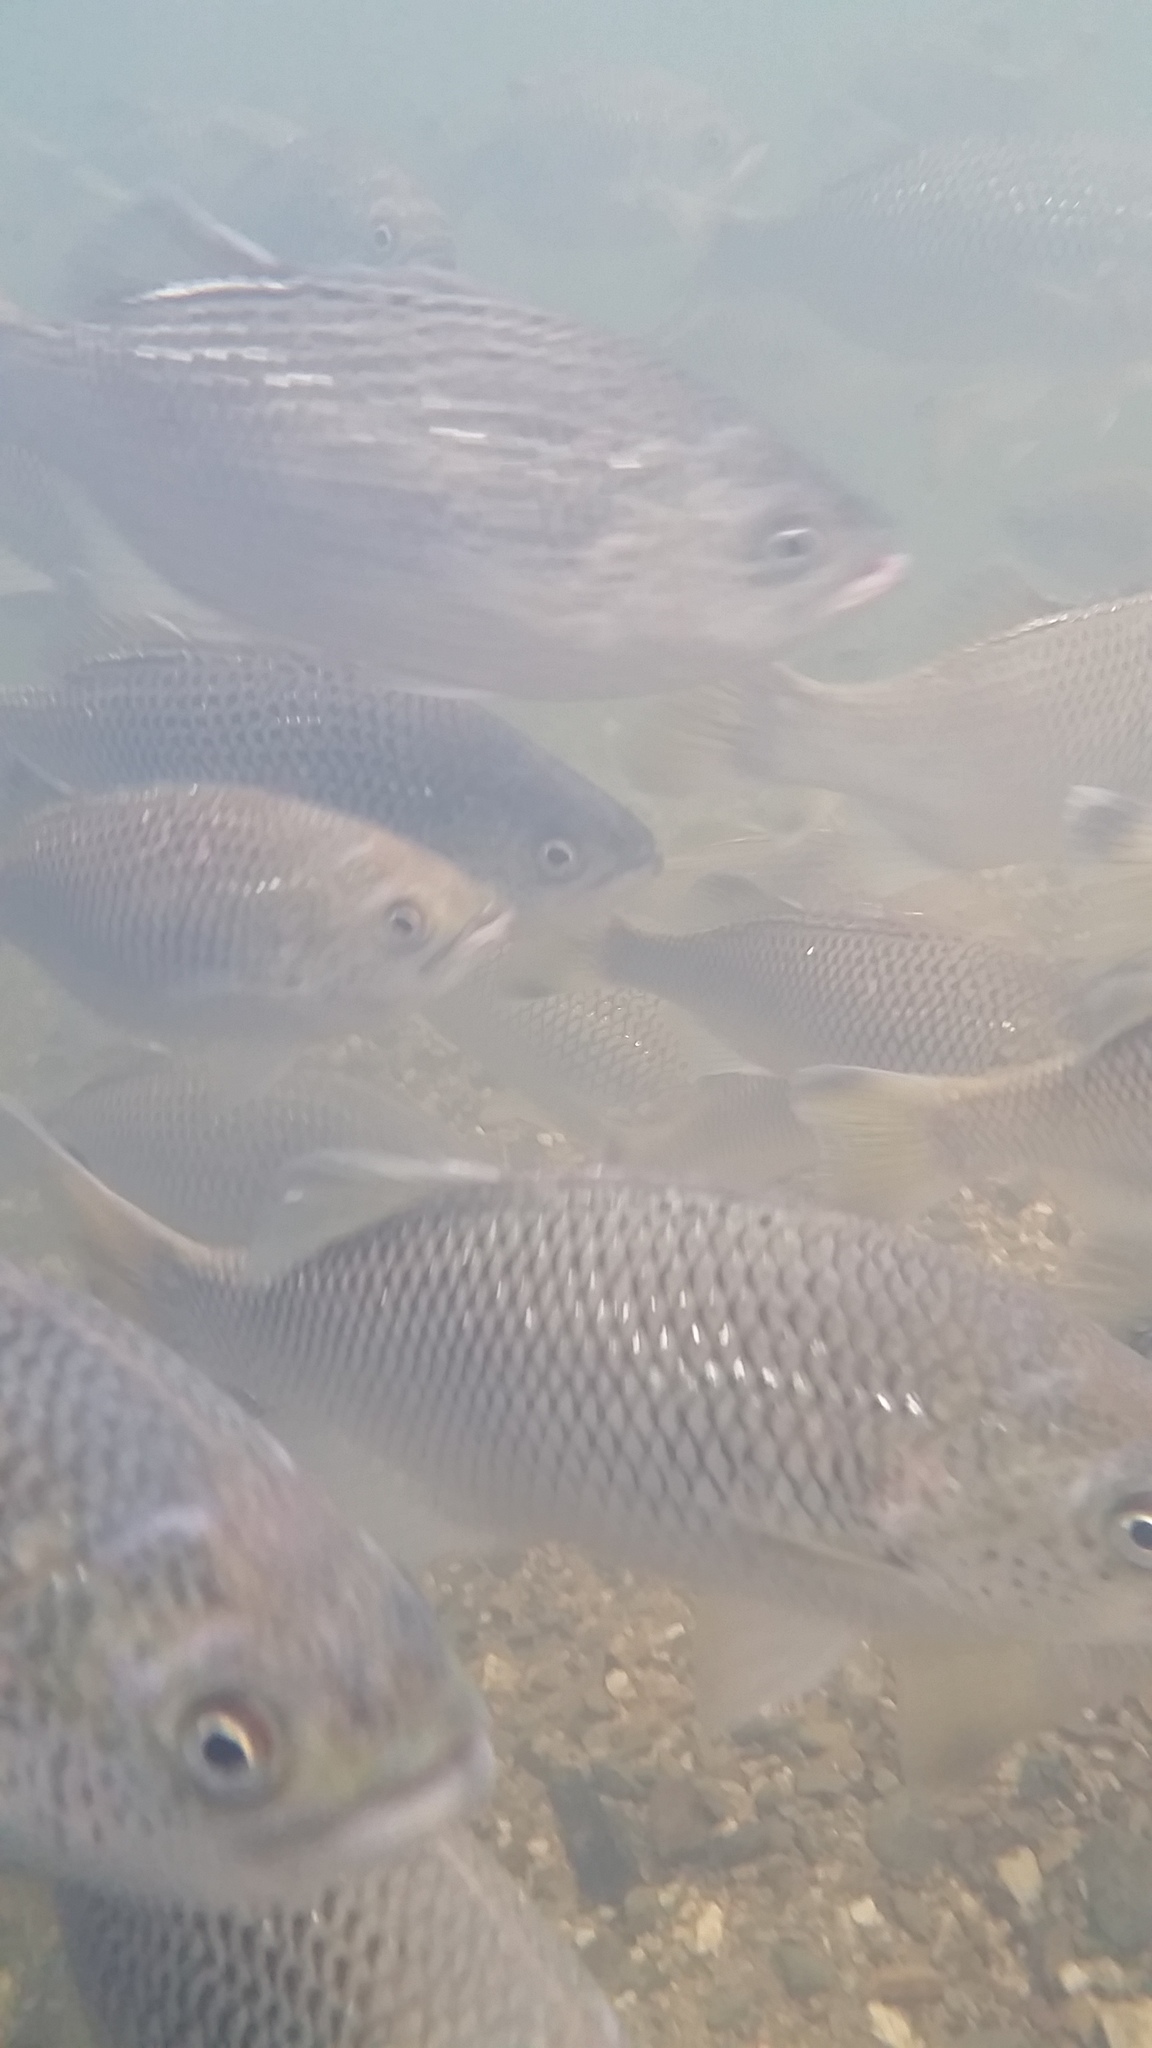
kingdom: Animalia
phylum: Chordata
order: Perciformes
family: Kuhliidae
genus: Kuhlia
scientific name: Kuhlia rupestris
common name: Rock flagtail
